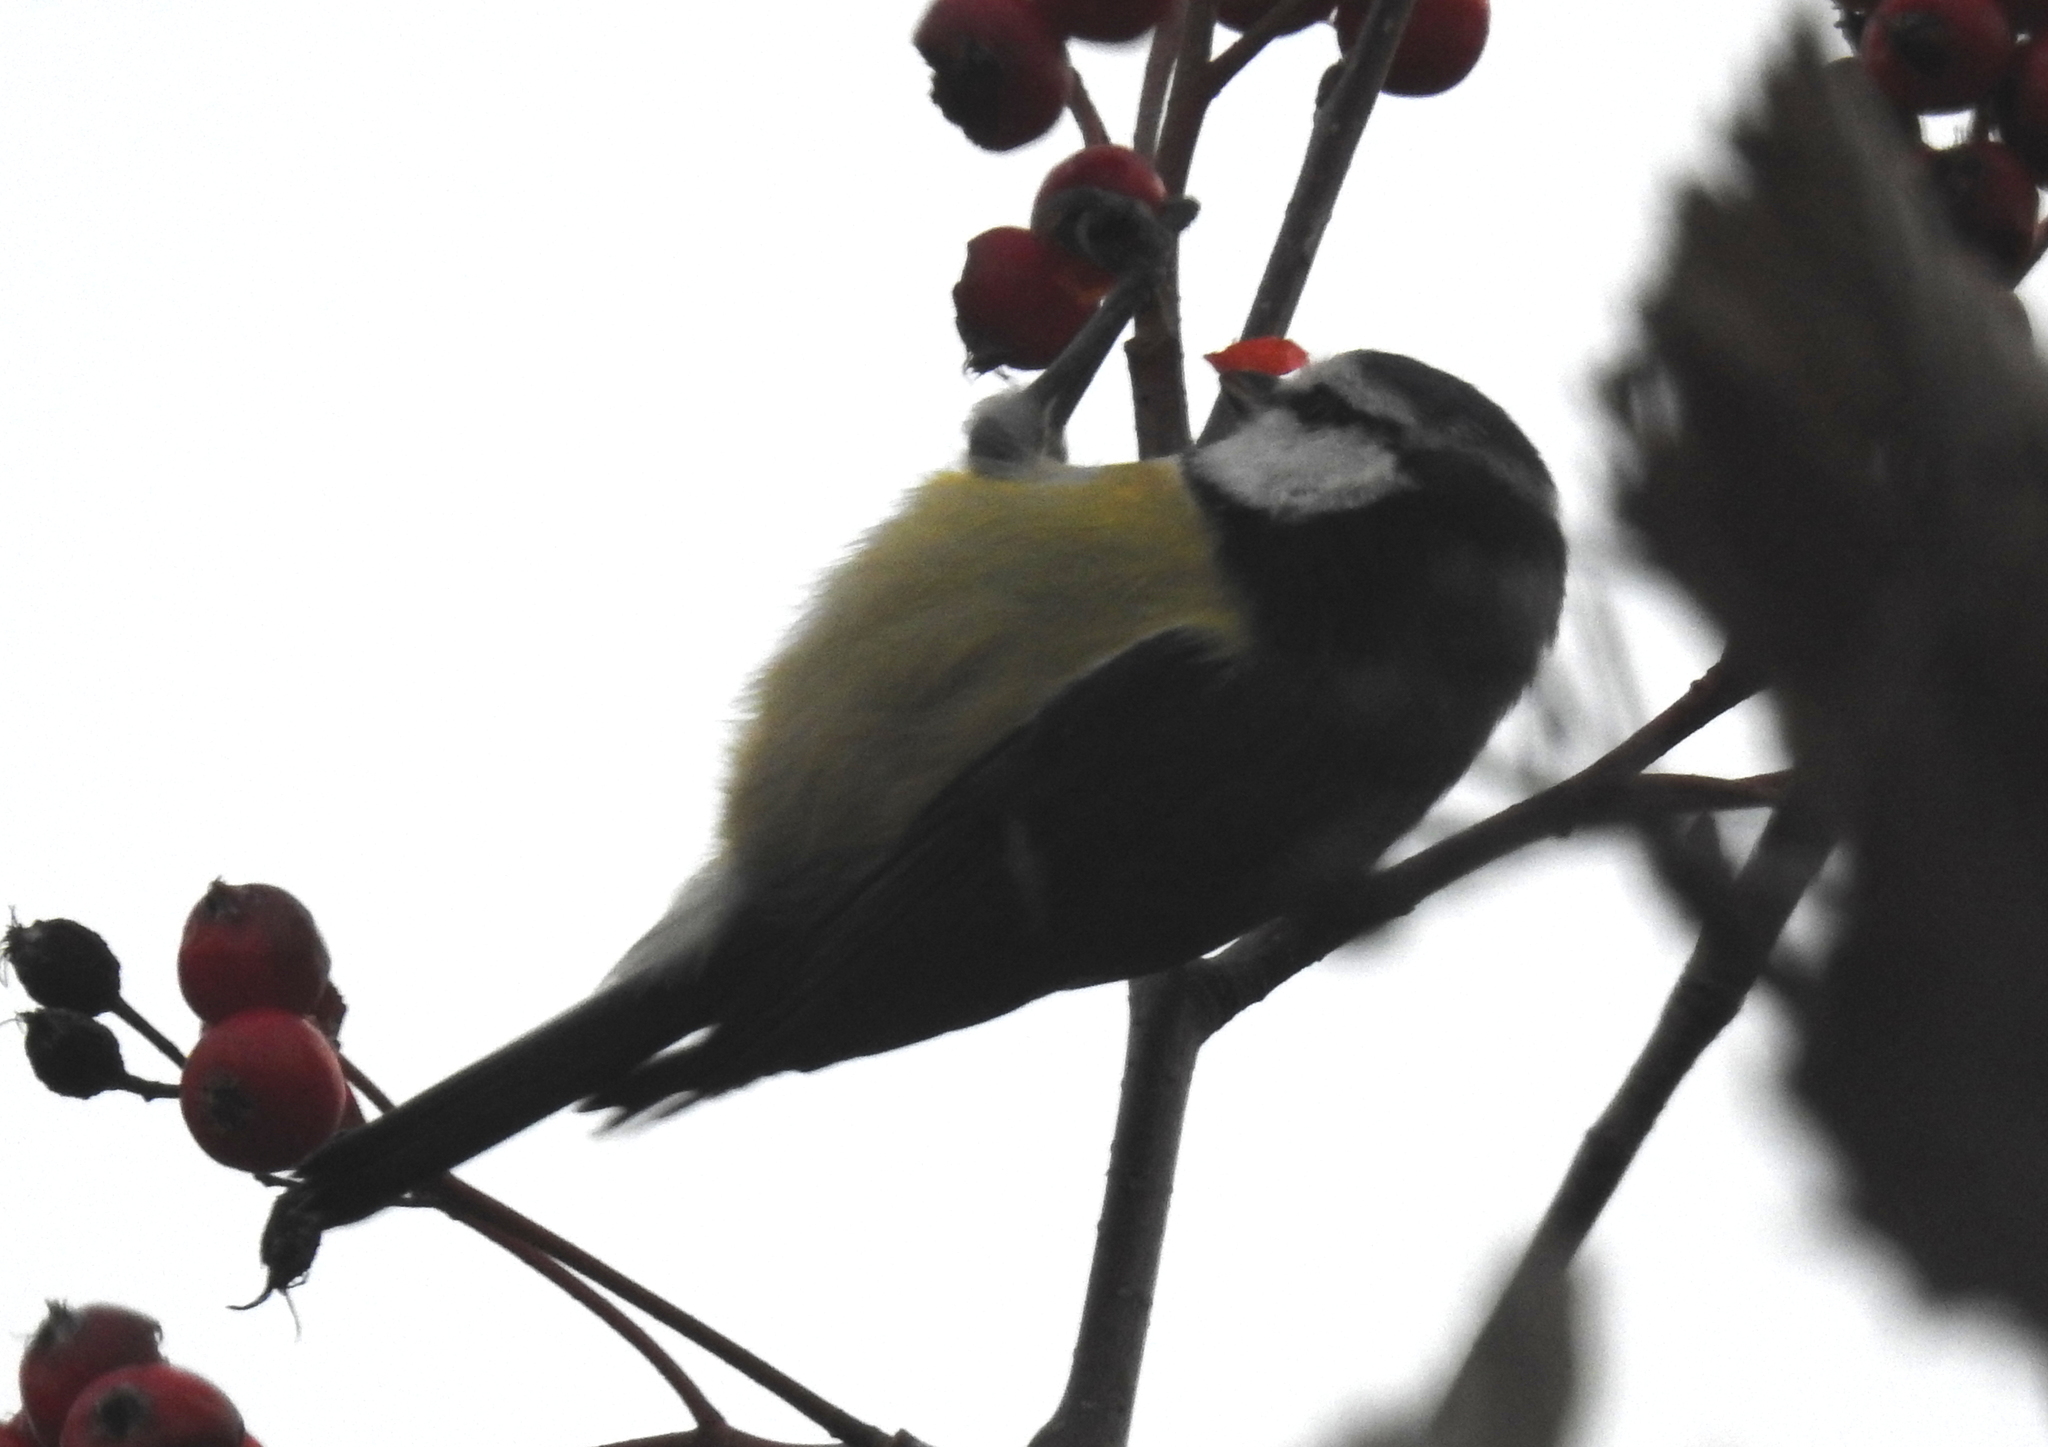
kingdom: Animalia
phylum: Chordata
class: Aves
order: Passeriformes
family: Paridae
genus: Cyanistes
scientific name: Cyanistes caeruleus
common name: Eurasian blue tit
